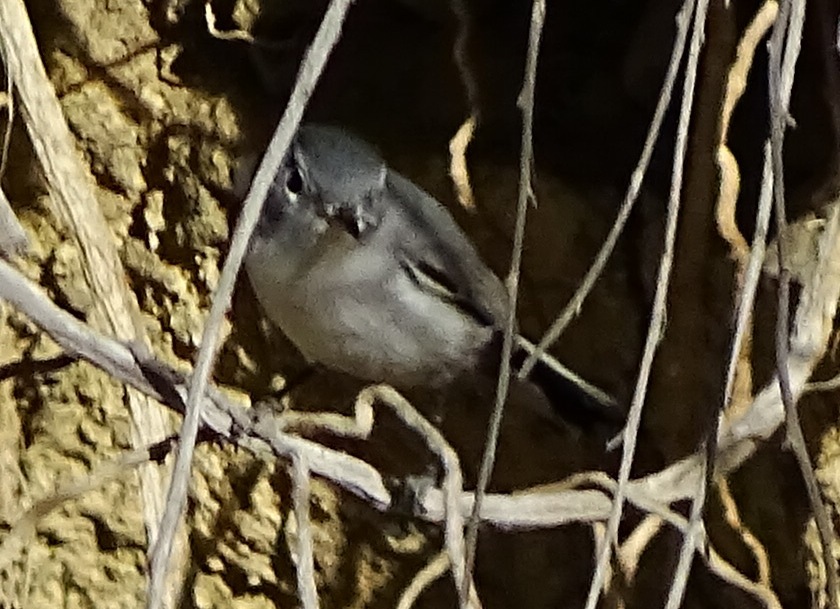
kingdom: Animalia
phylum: Chordata
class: Aves
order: Passeriformes
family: Polioptilidae
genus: Polioptila
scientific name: Polioptila caerulea
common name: Blue-gray gnatcatcher
